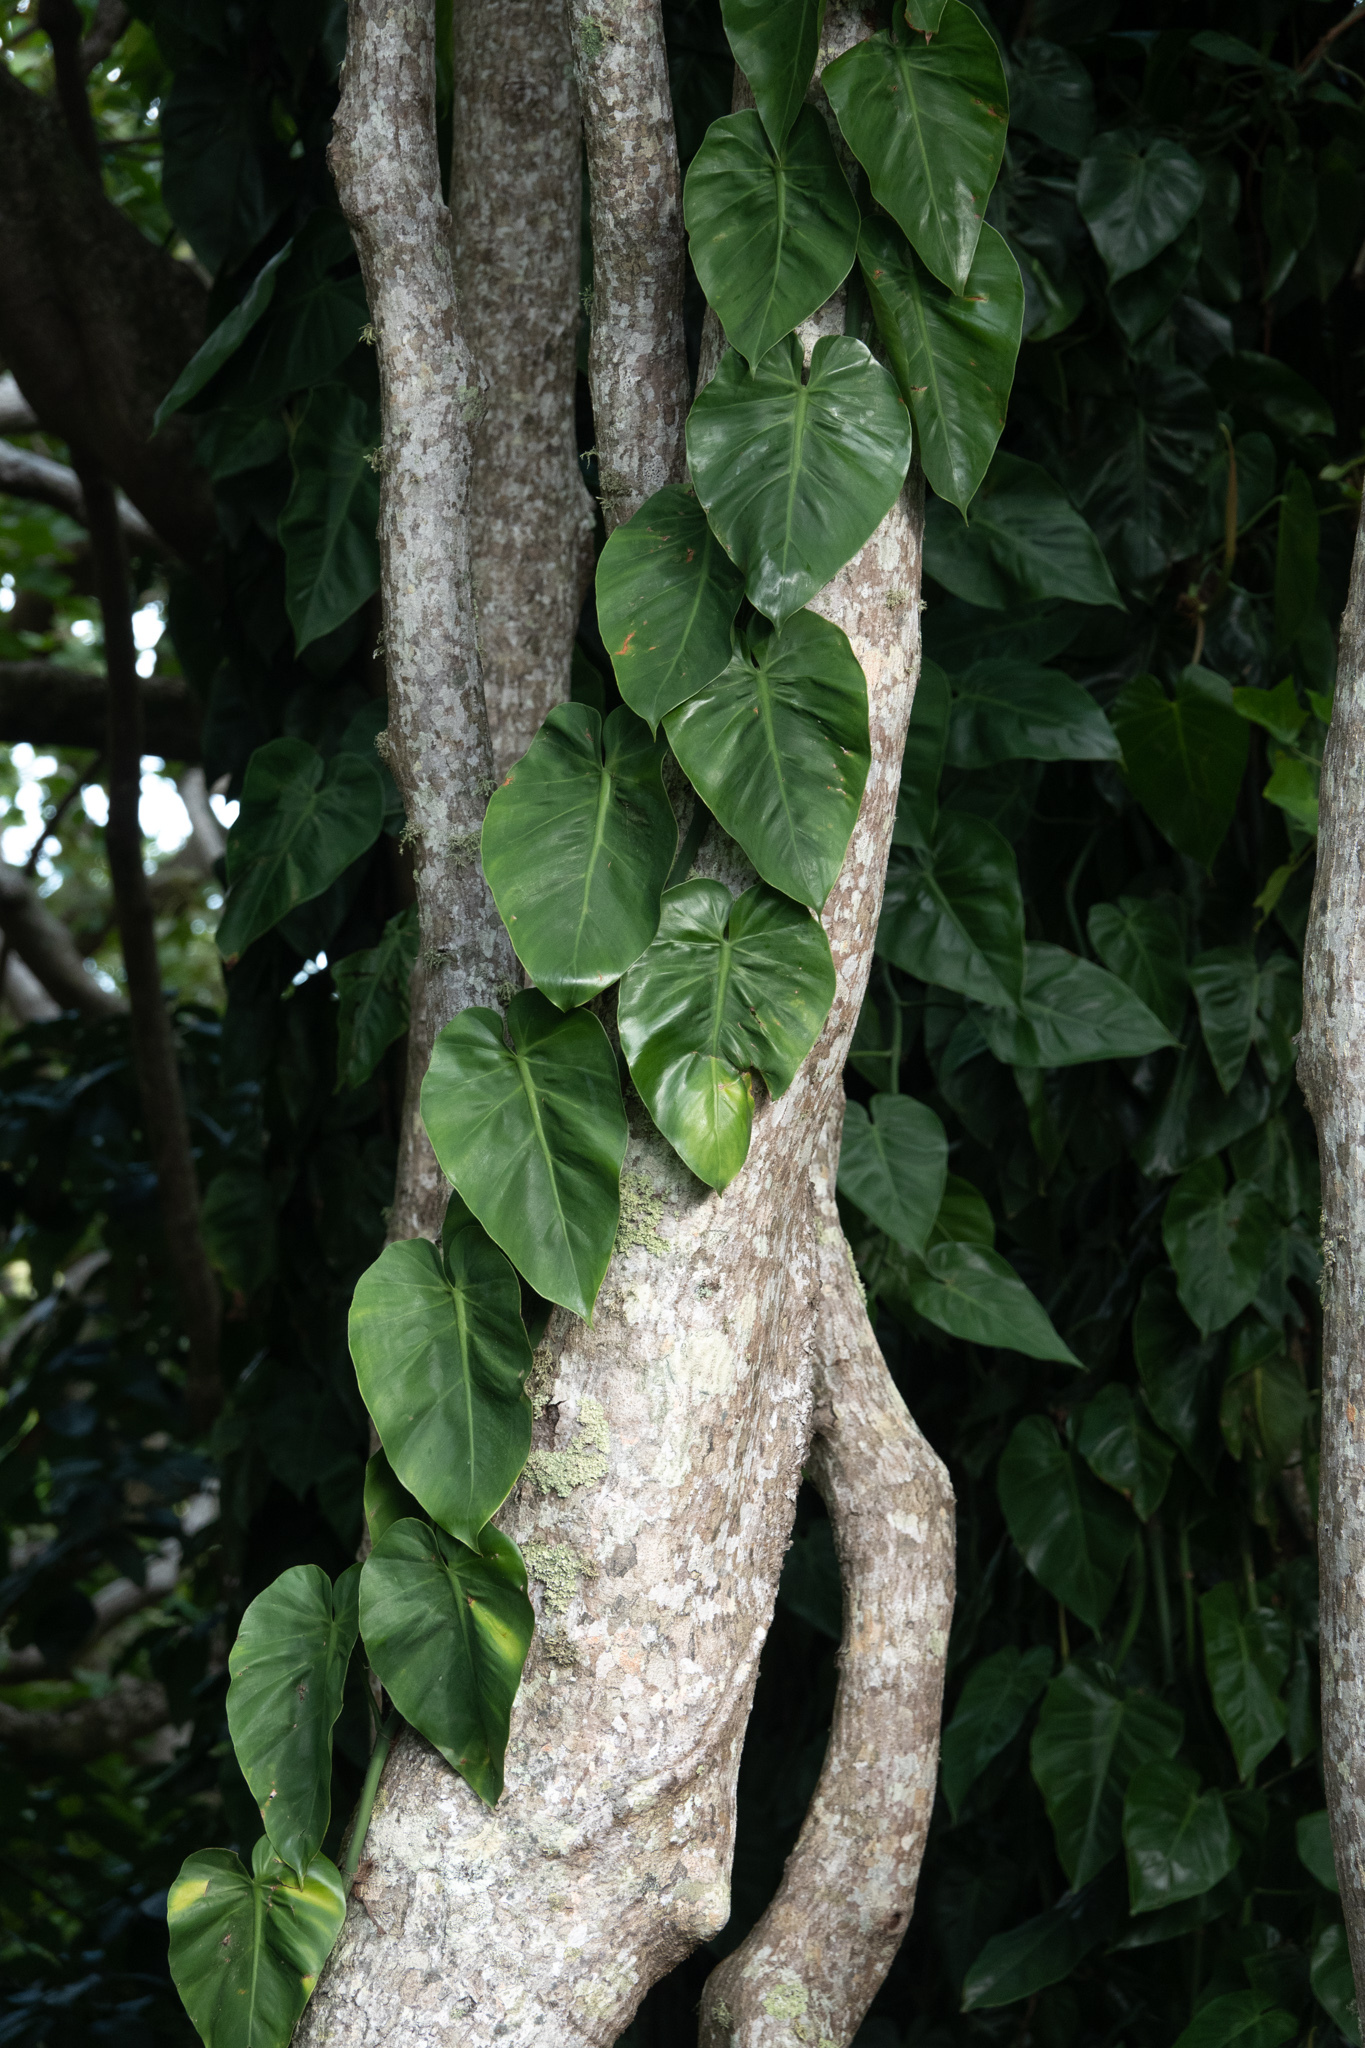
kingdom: Plantae
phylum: Tracheophyta
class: Liliopsida
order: Alismatales
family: Araceae
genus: Philodendron
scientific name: Philodendron hederaceum
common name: Vilevine
